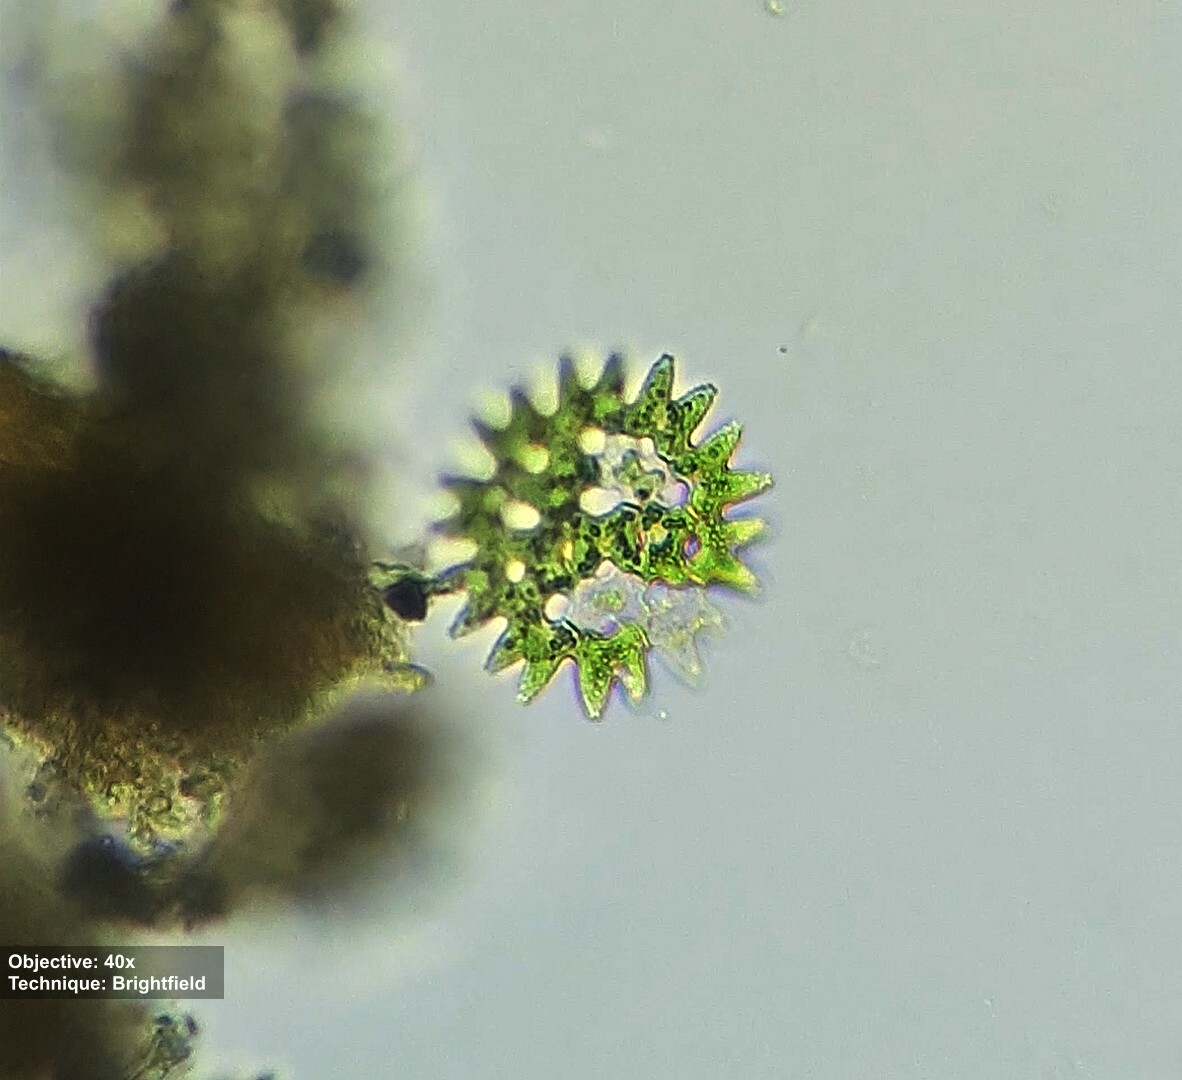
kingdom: Plantae
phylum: Chlorophyta
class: Chlorophyceae
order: Sphaeropleales
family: Hydrodictyaceae
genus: Pediastrum
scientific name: Pediastrum duplex
